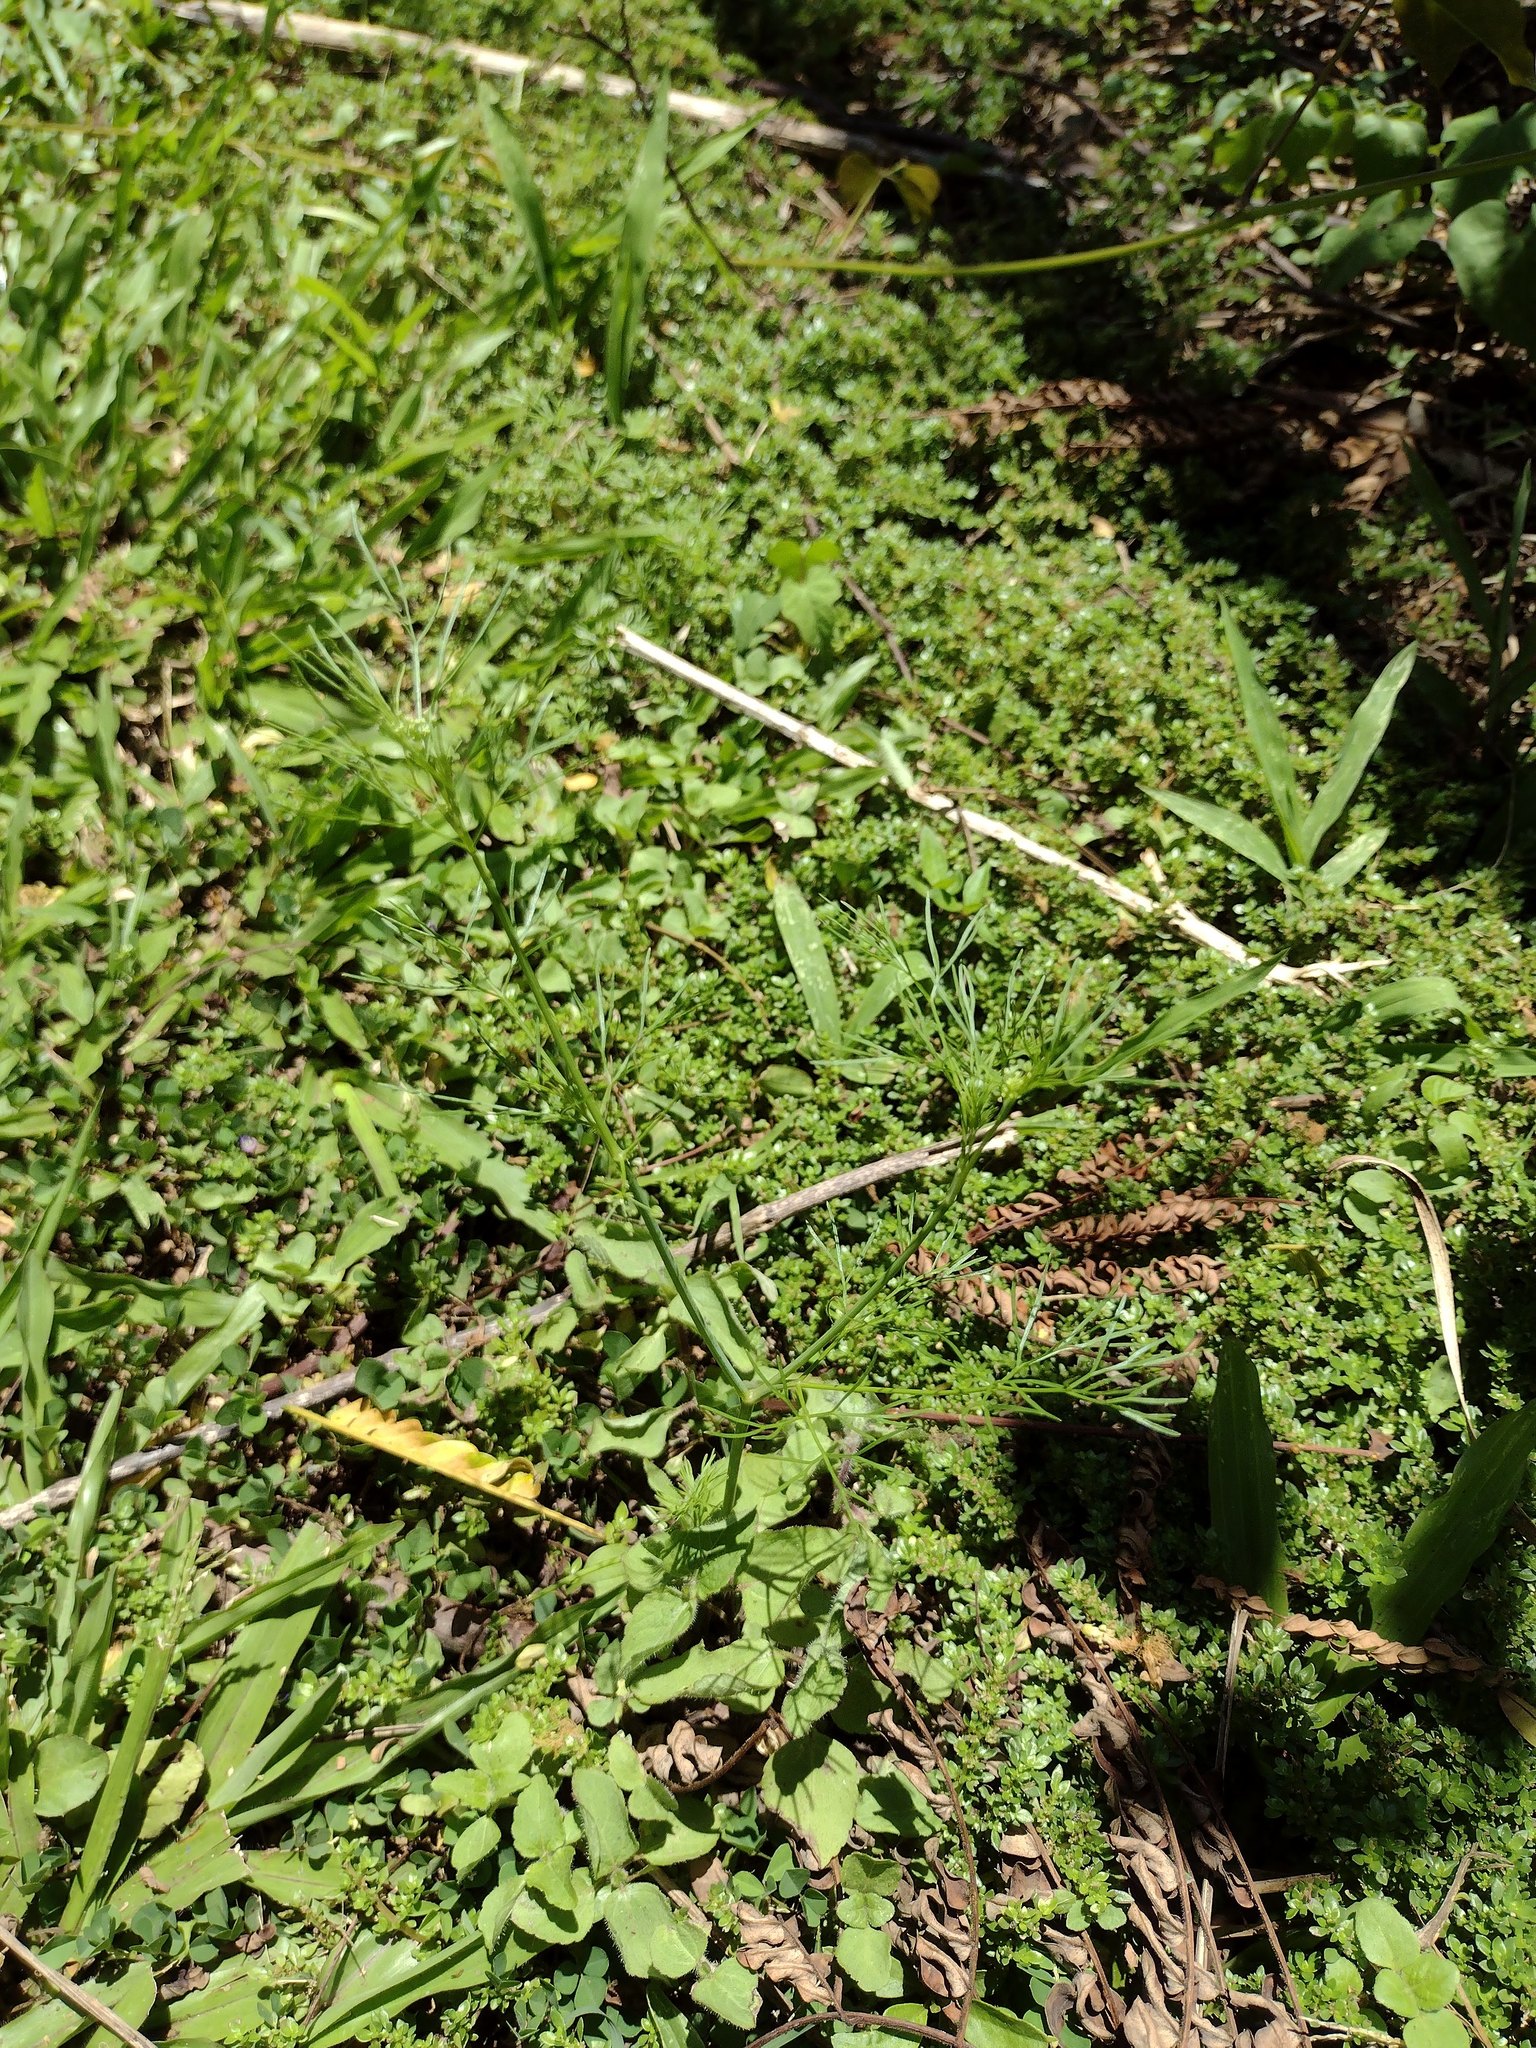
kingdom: Plantae
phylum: Tracheophyta
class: Magnoliopsida
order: Apiales
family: Apiaceae
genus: Cyclospermum
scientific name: Cyclospermum leptophyllum
